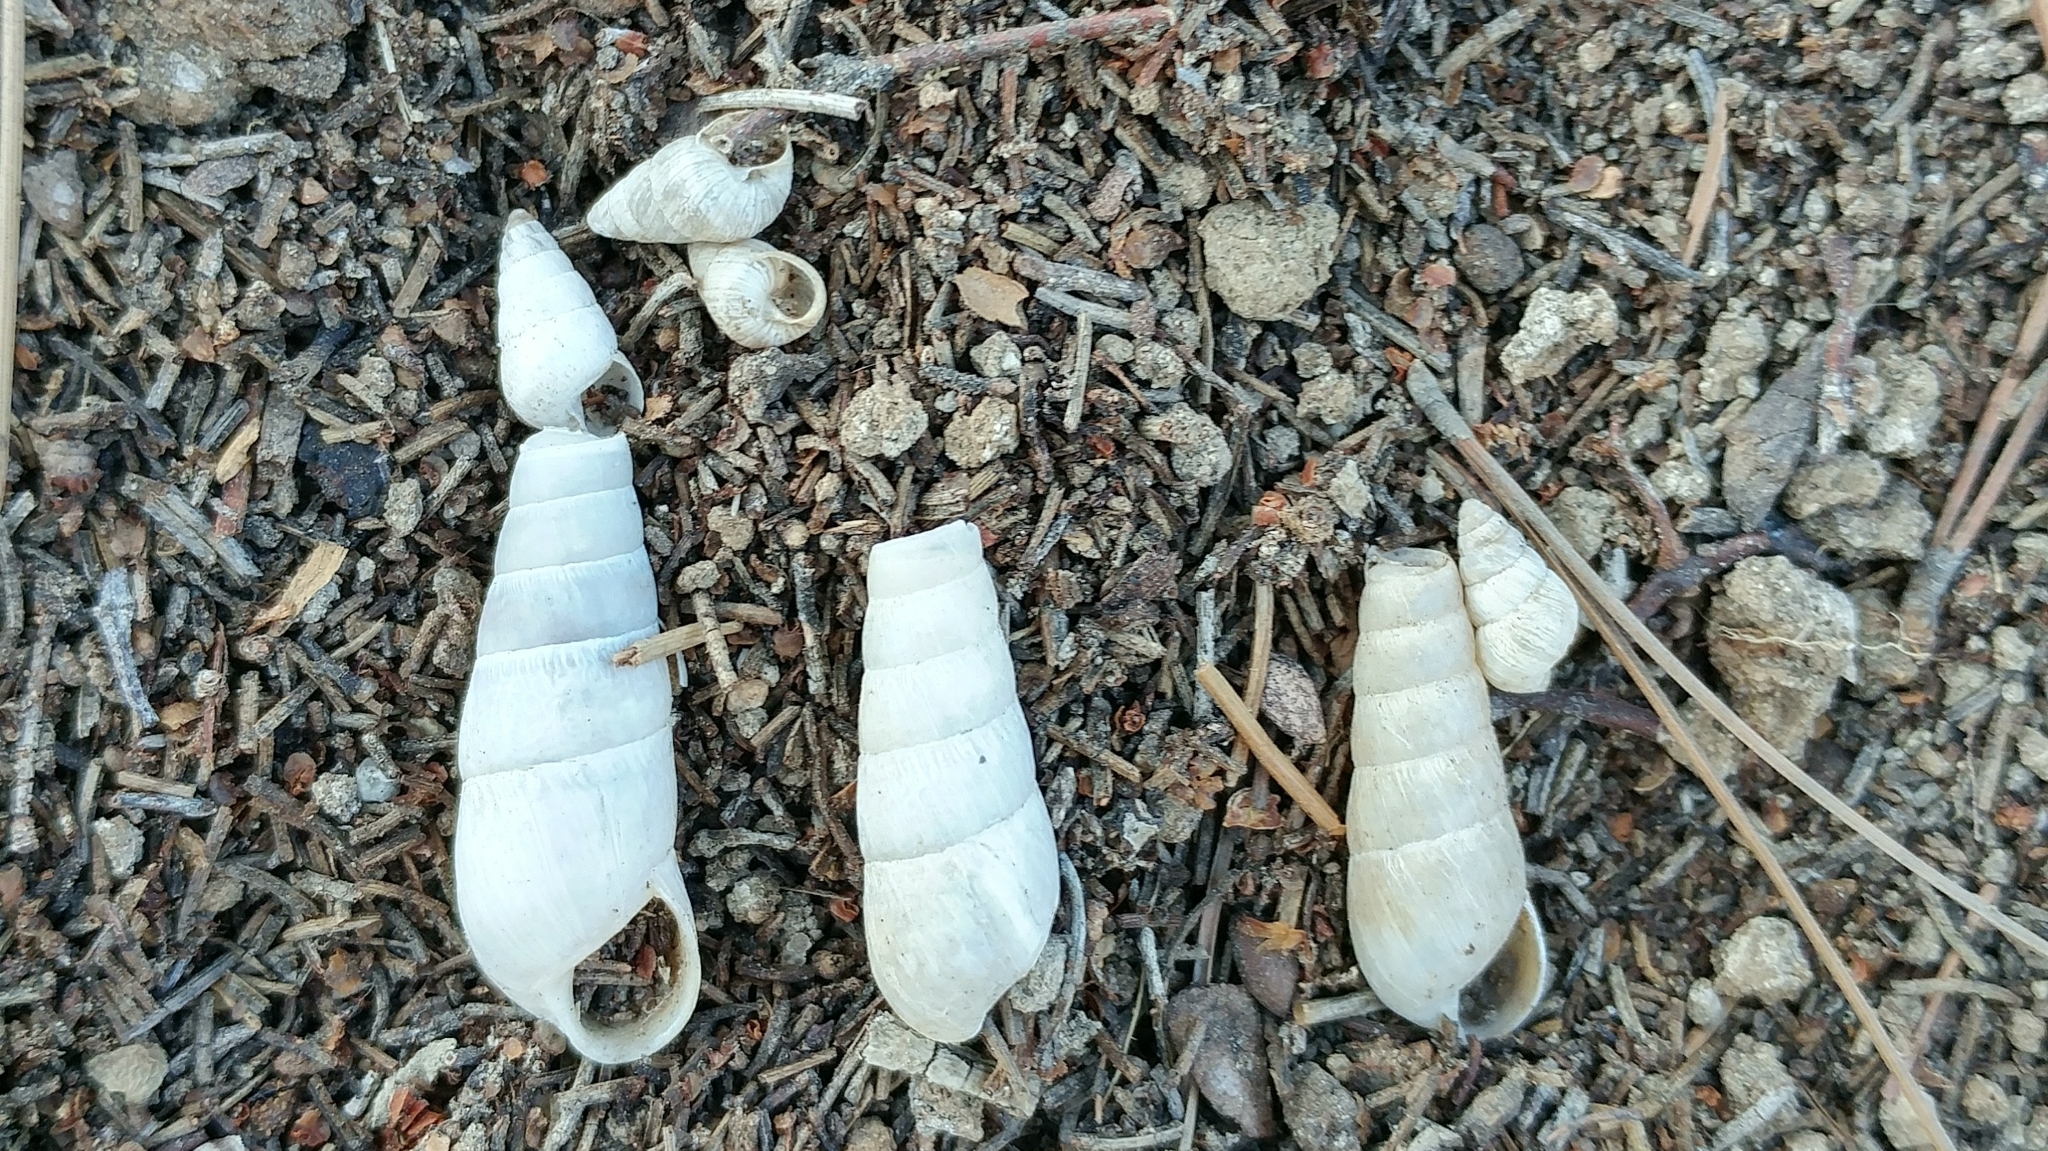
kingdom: Animalia
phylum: Mollusca
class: Gastropoda
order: Stylommatophora
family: Achatinidae
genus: Rumina
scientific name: Rumina decollata
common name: Decollate snail
